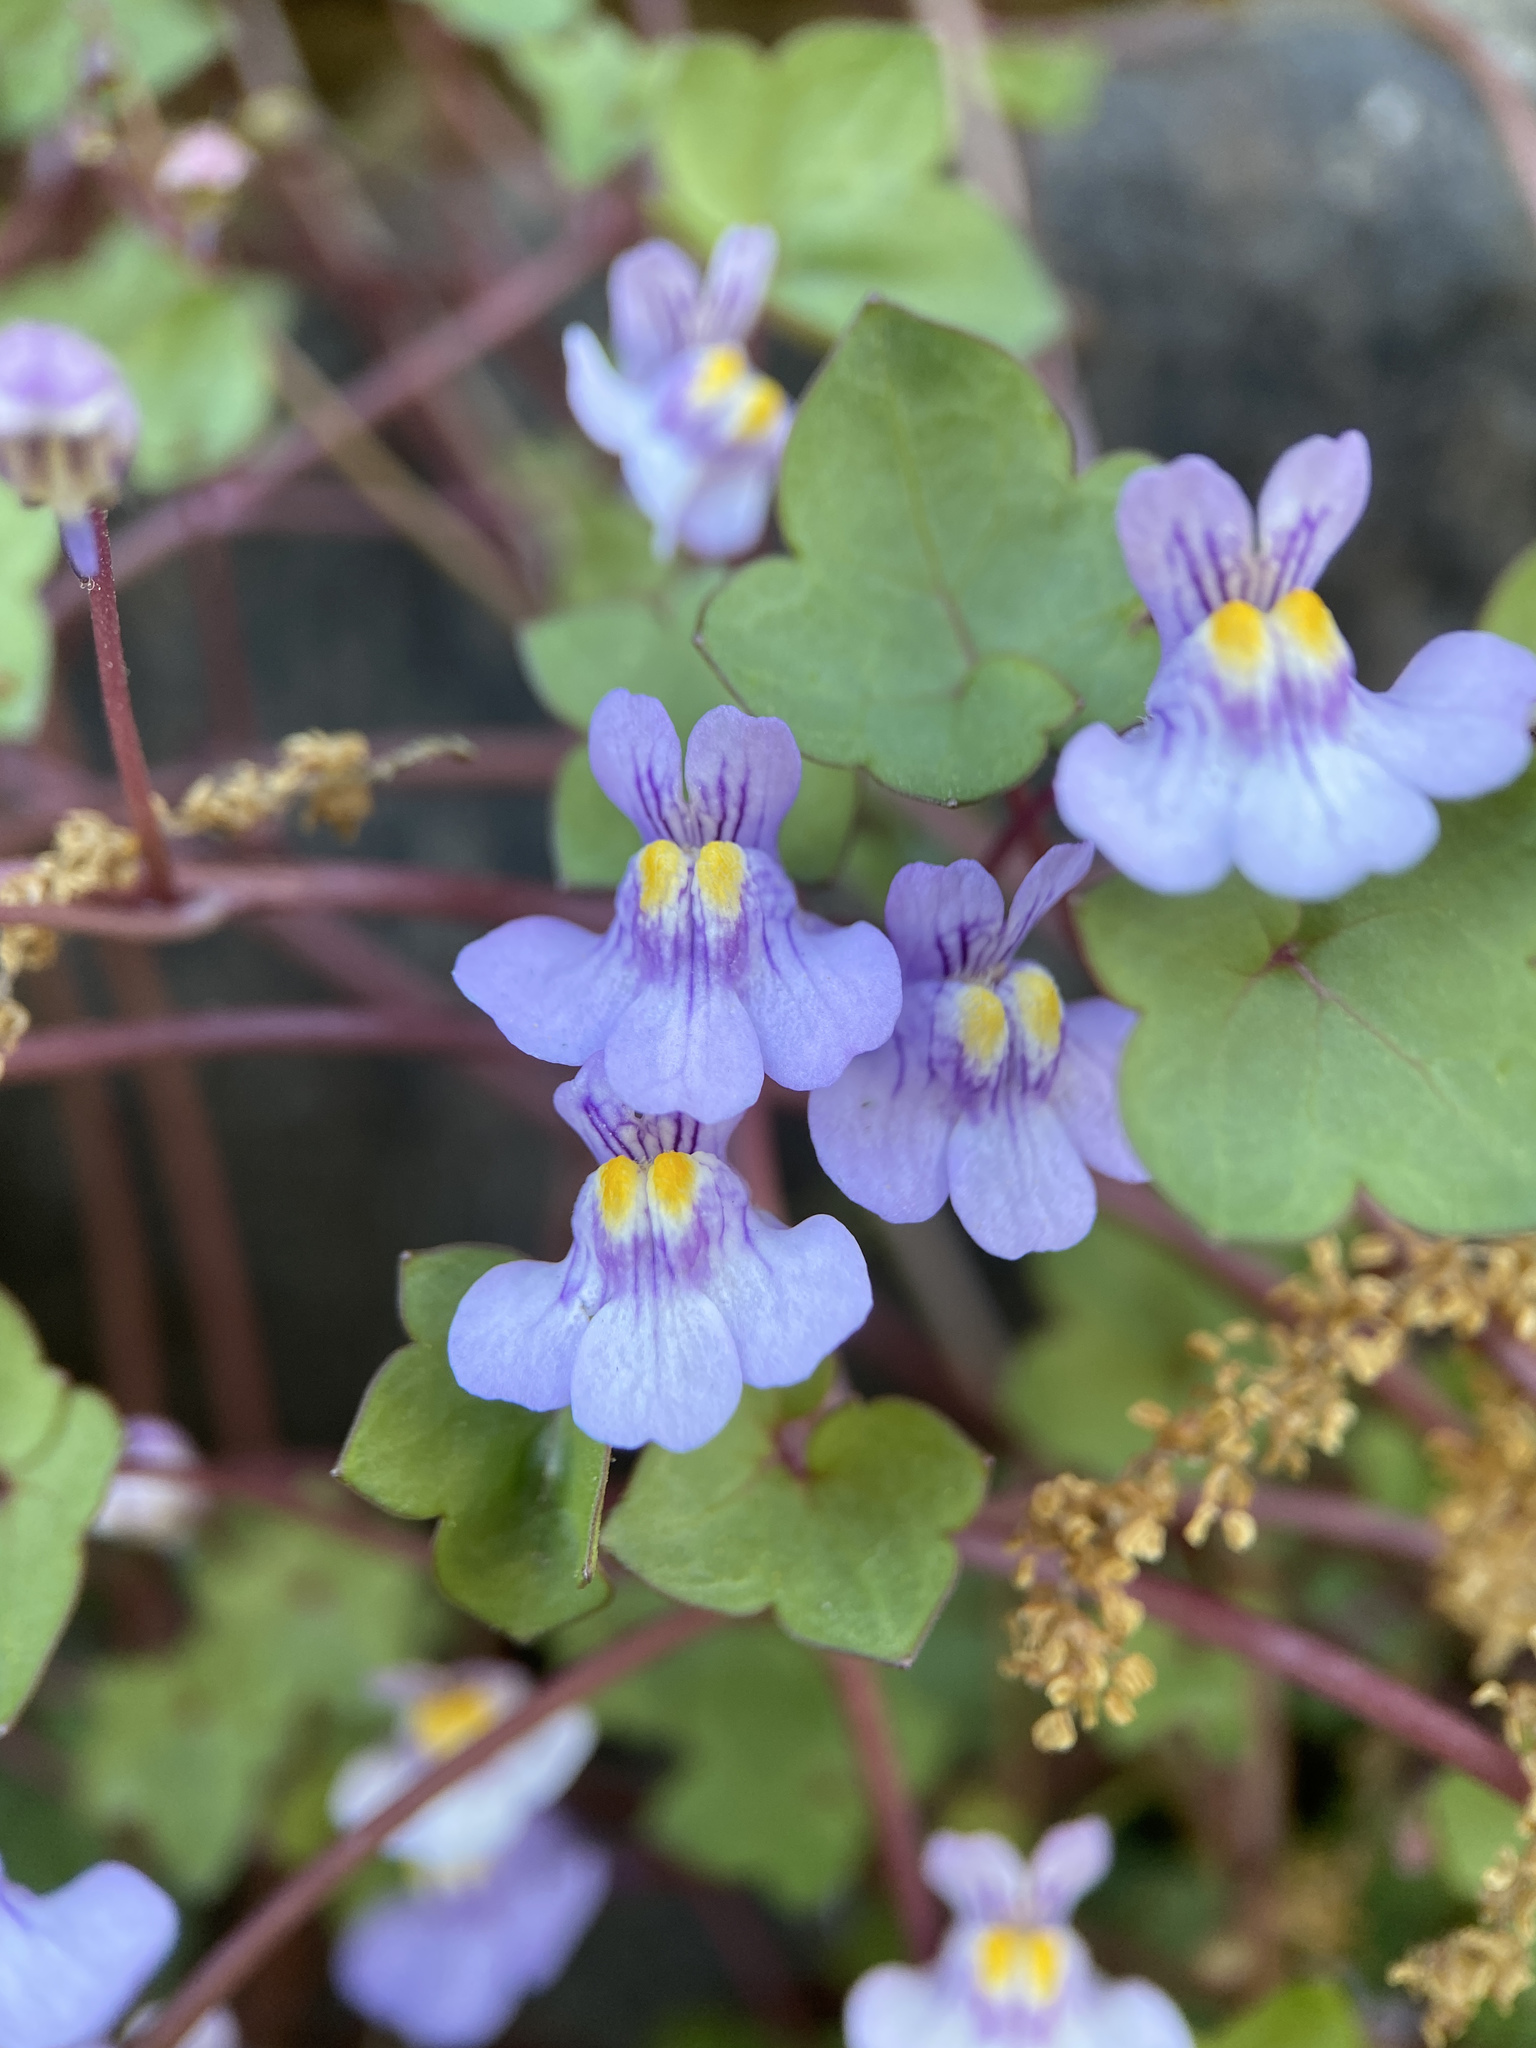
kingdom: Plantae
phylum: Tracheophyta
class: Magnoliopsida
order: Lamiales
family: Plantaginaceae
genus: Cymbalaria
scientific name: Cymbalaria muralis
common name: Ivy-leaved toadflax
